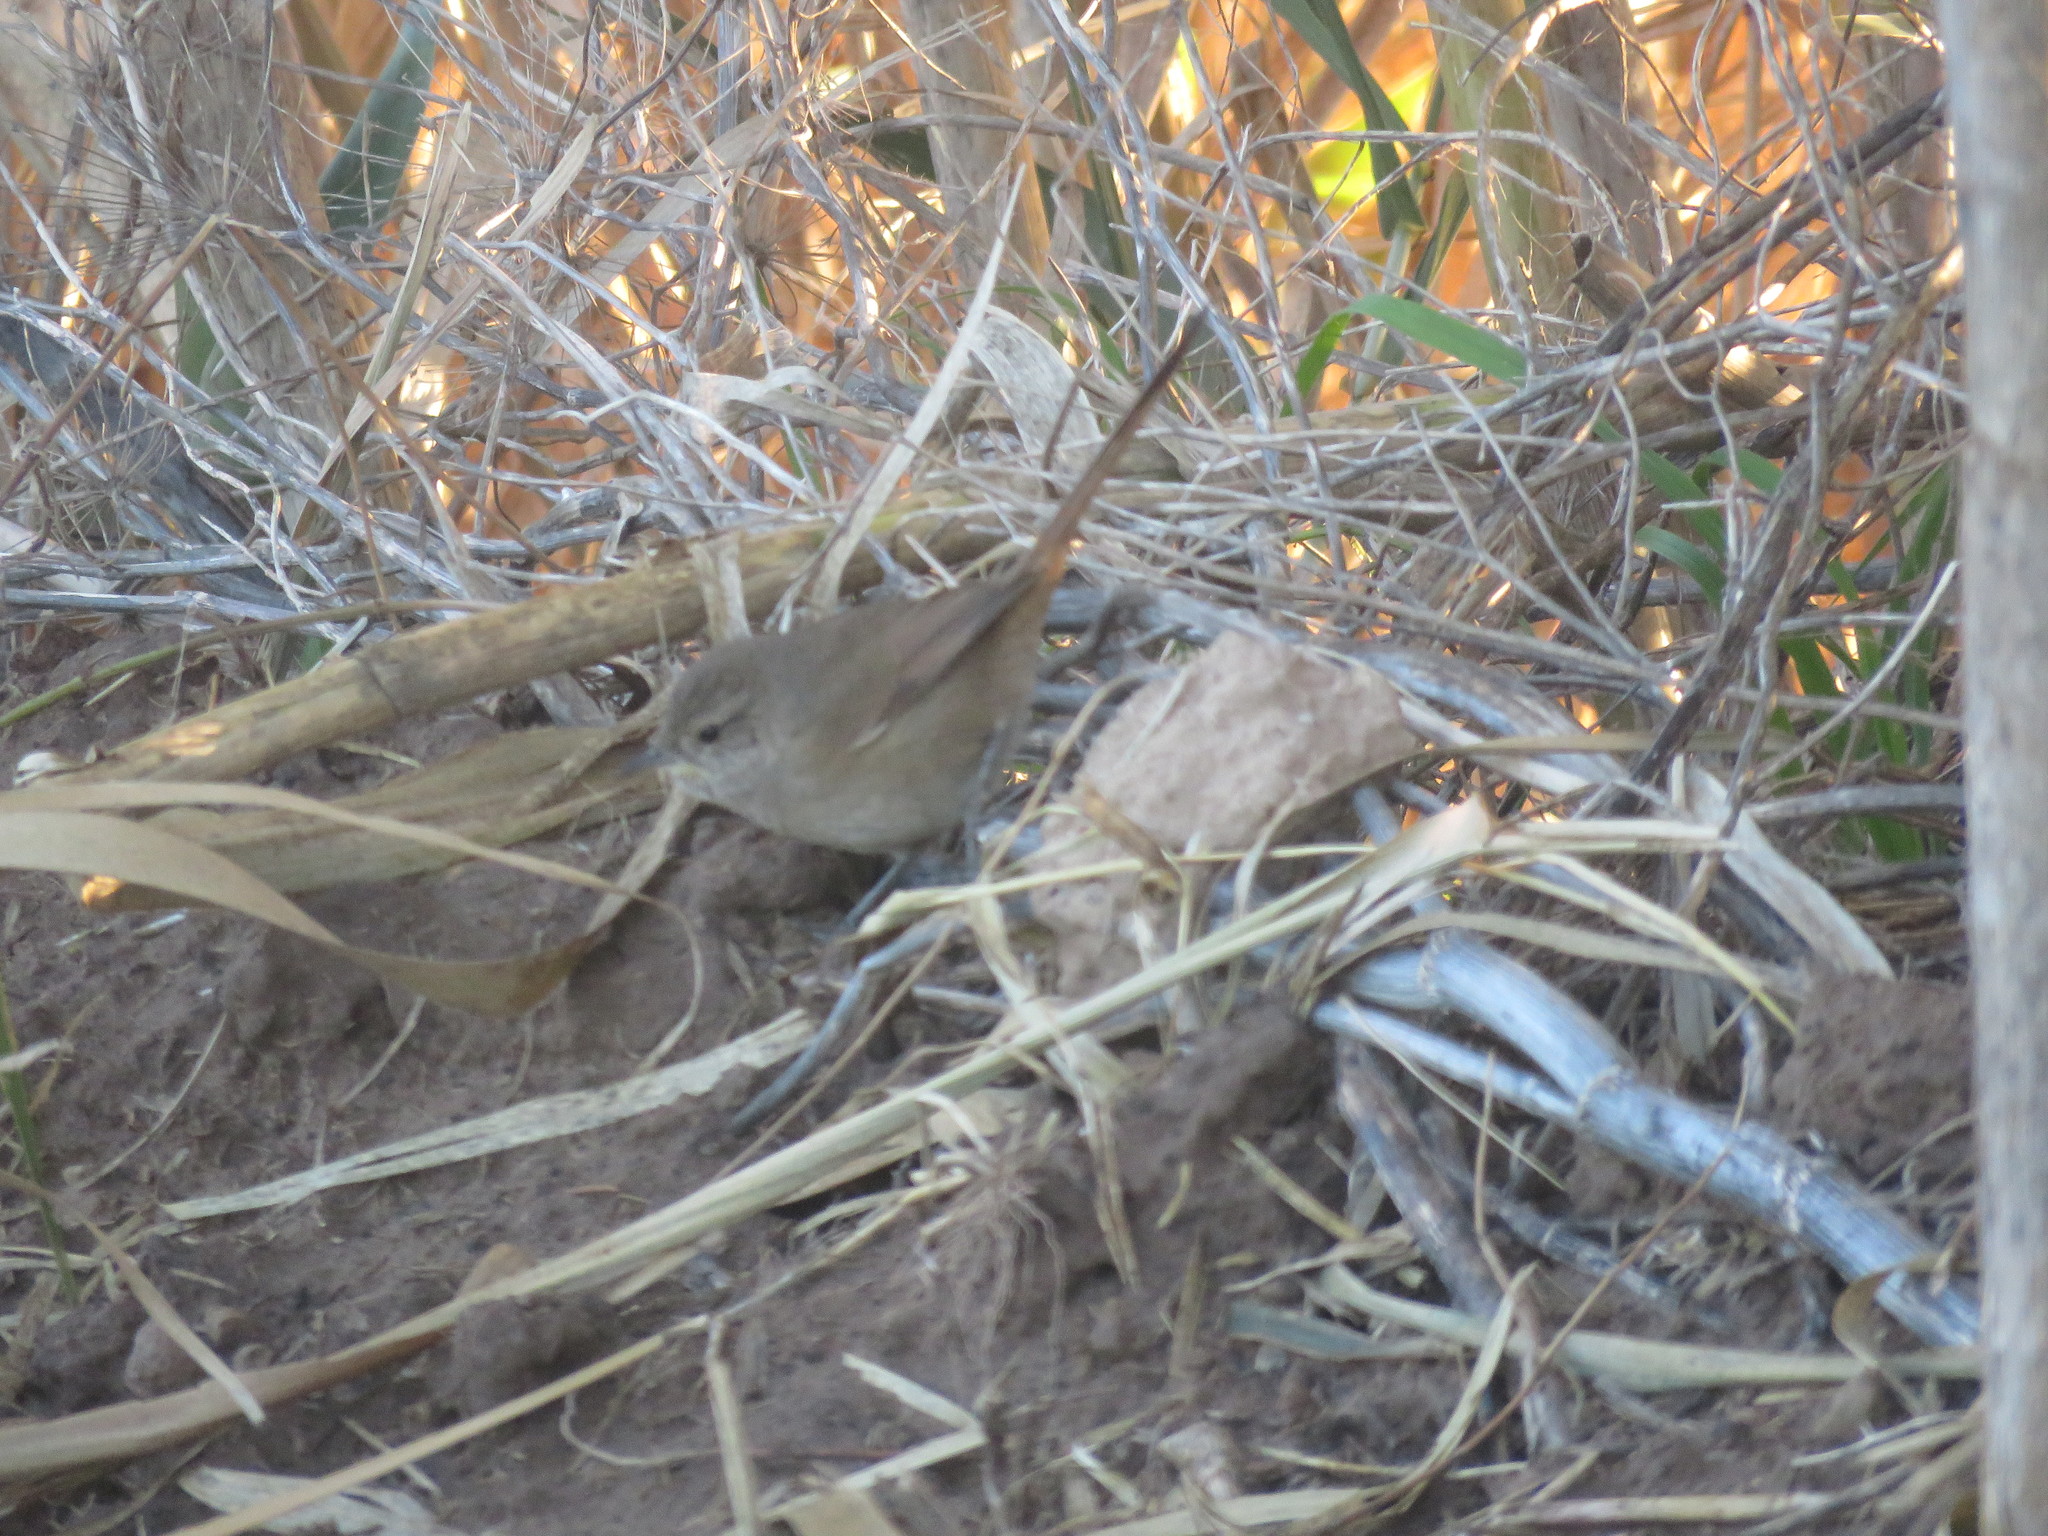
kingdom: Animalia
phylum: Chordata
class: Aves
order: Passeriformes
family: Furnariidae
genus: Asthenes
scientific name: Asthenes pyrrholeuca
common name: Sharp-billed canastero
